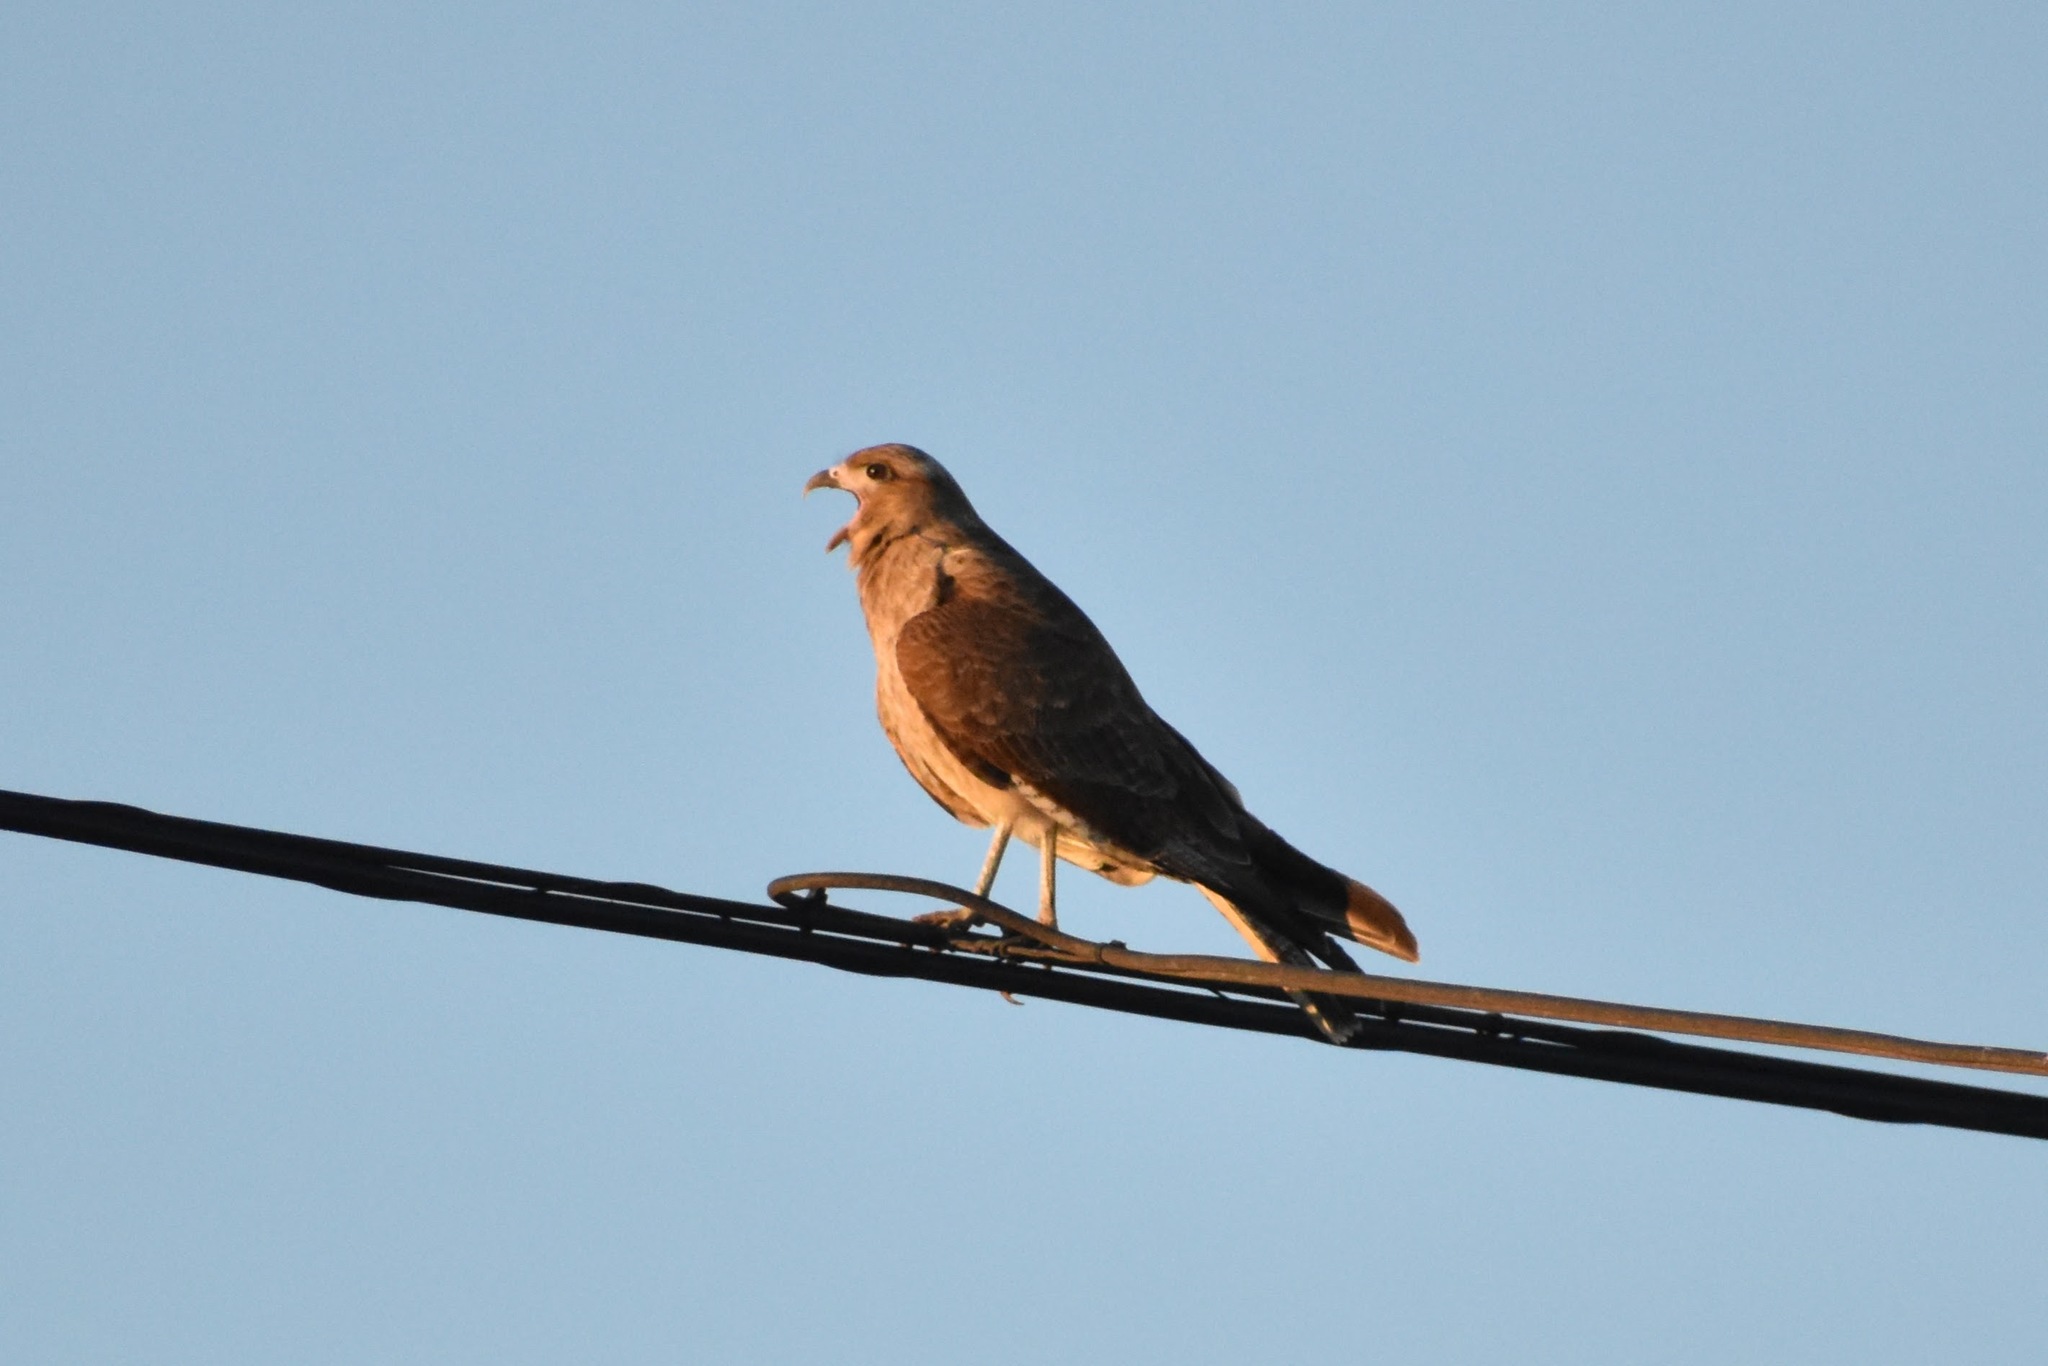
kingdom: Animalia
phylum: Chordata
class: Aves
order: Falconiformes
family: Falconidae
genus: Daptrius
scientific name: Daptrius
